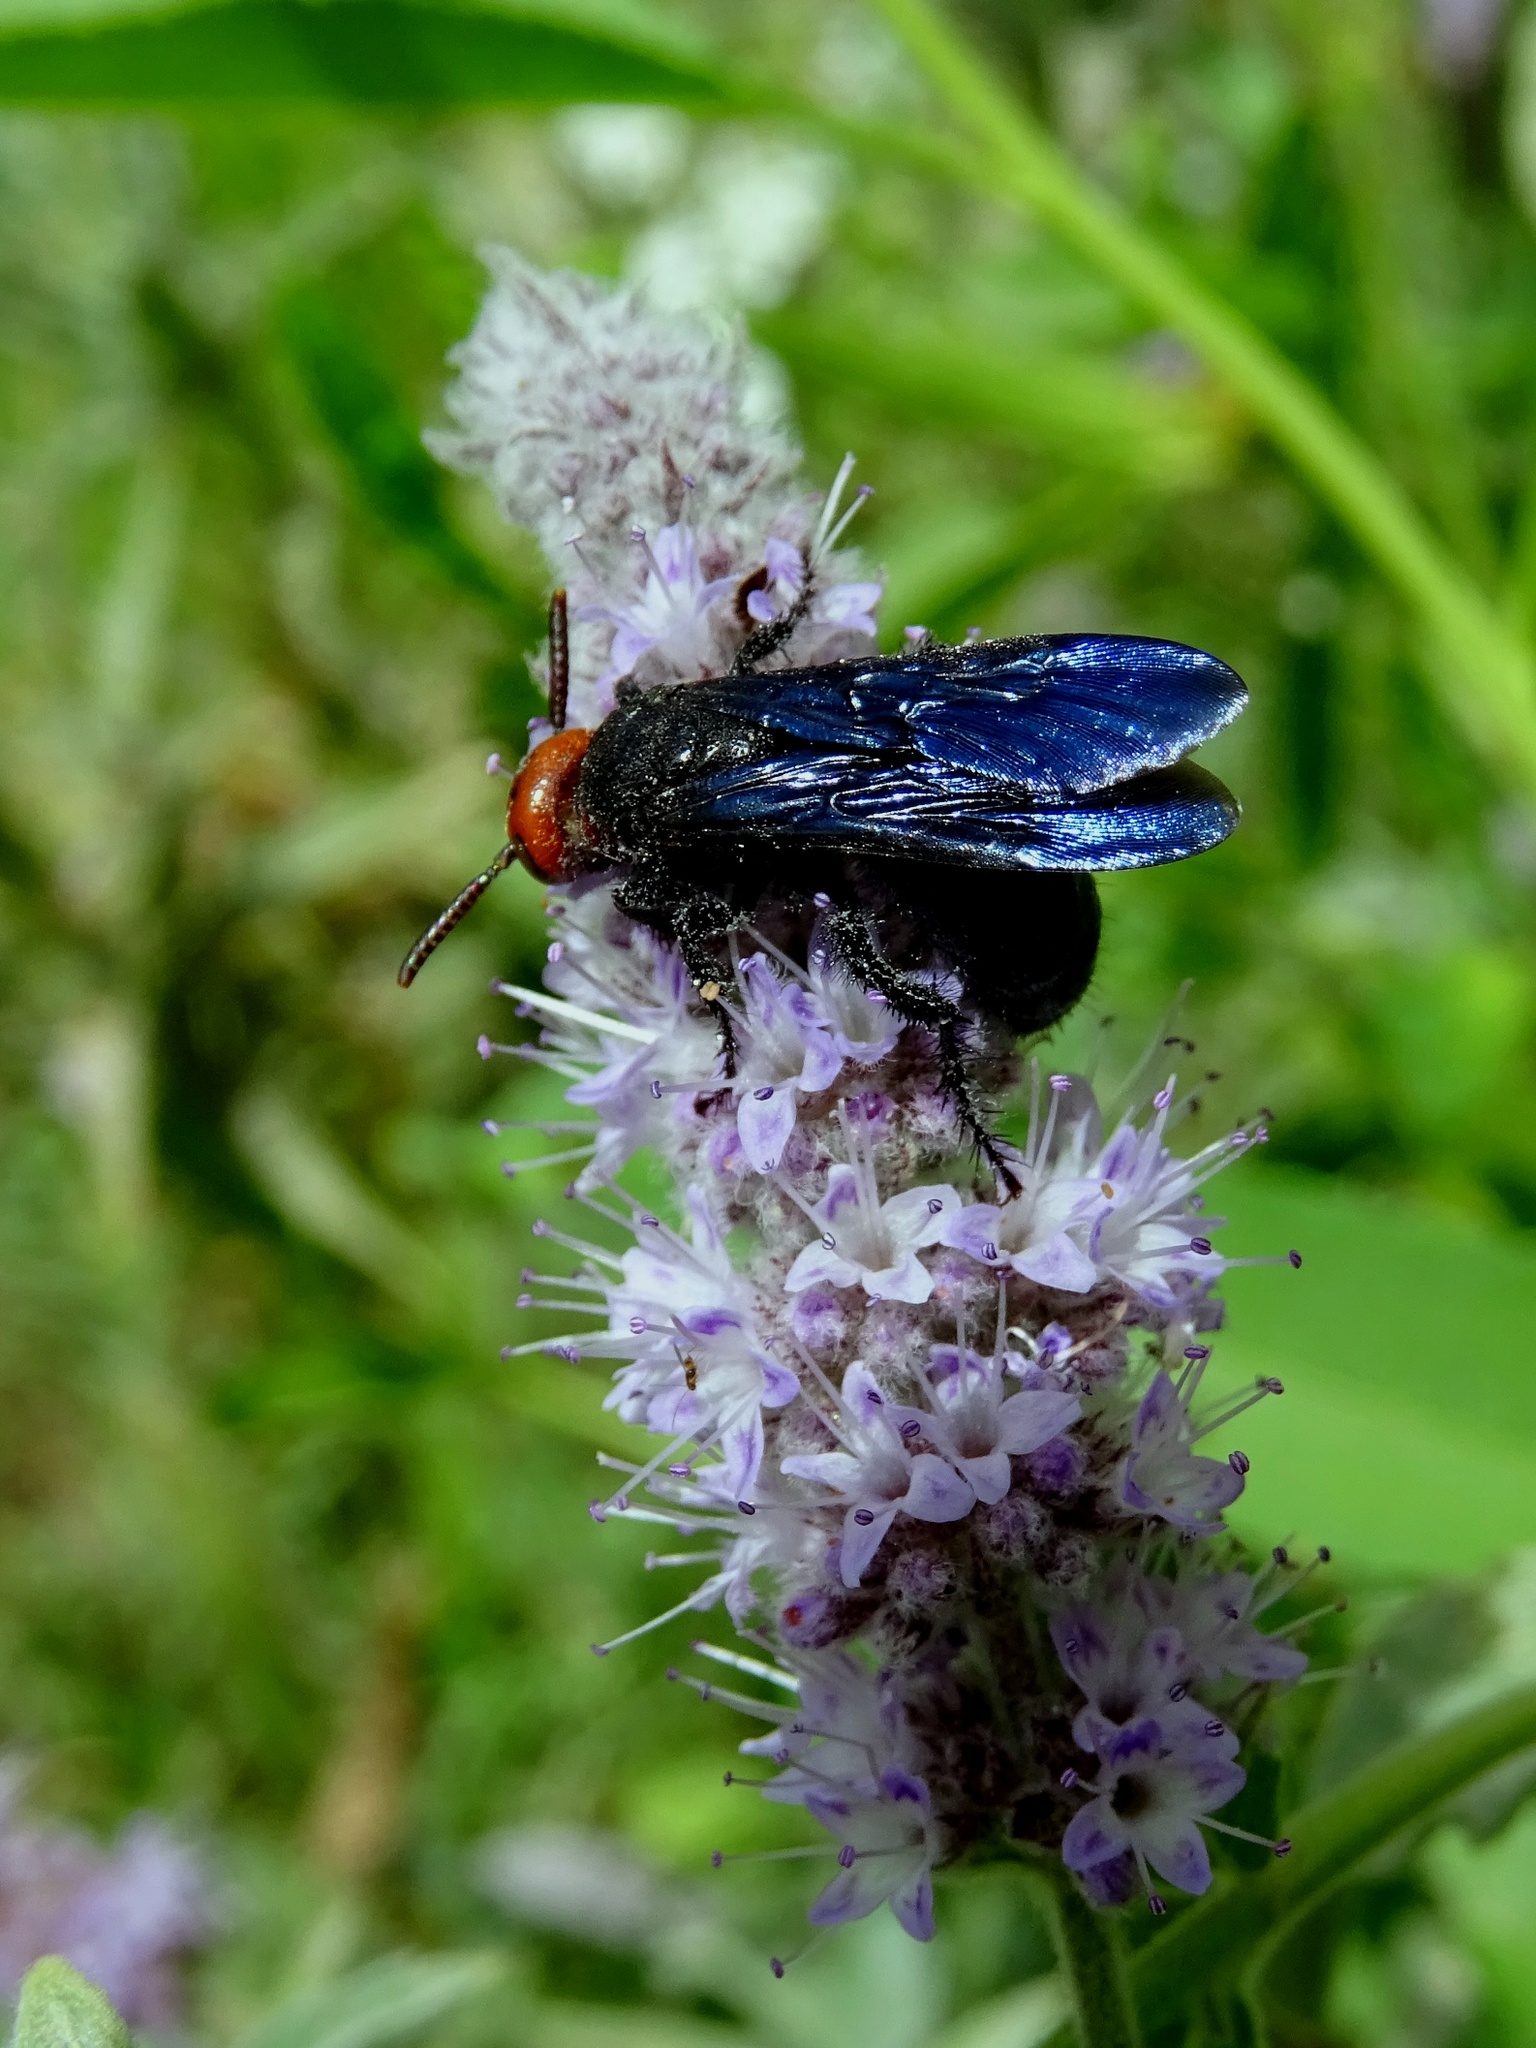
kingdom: Animalia
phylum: Arthropoda
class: Insecta
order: Hymenoptera
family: Scoliidae
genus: Scolia
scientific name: Scolia
